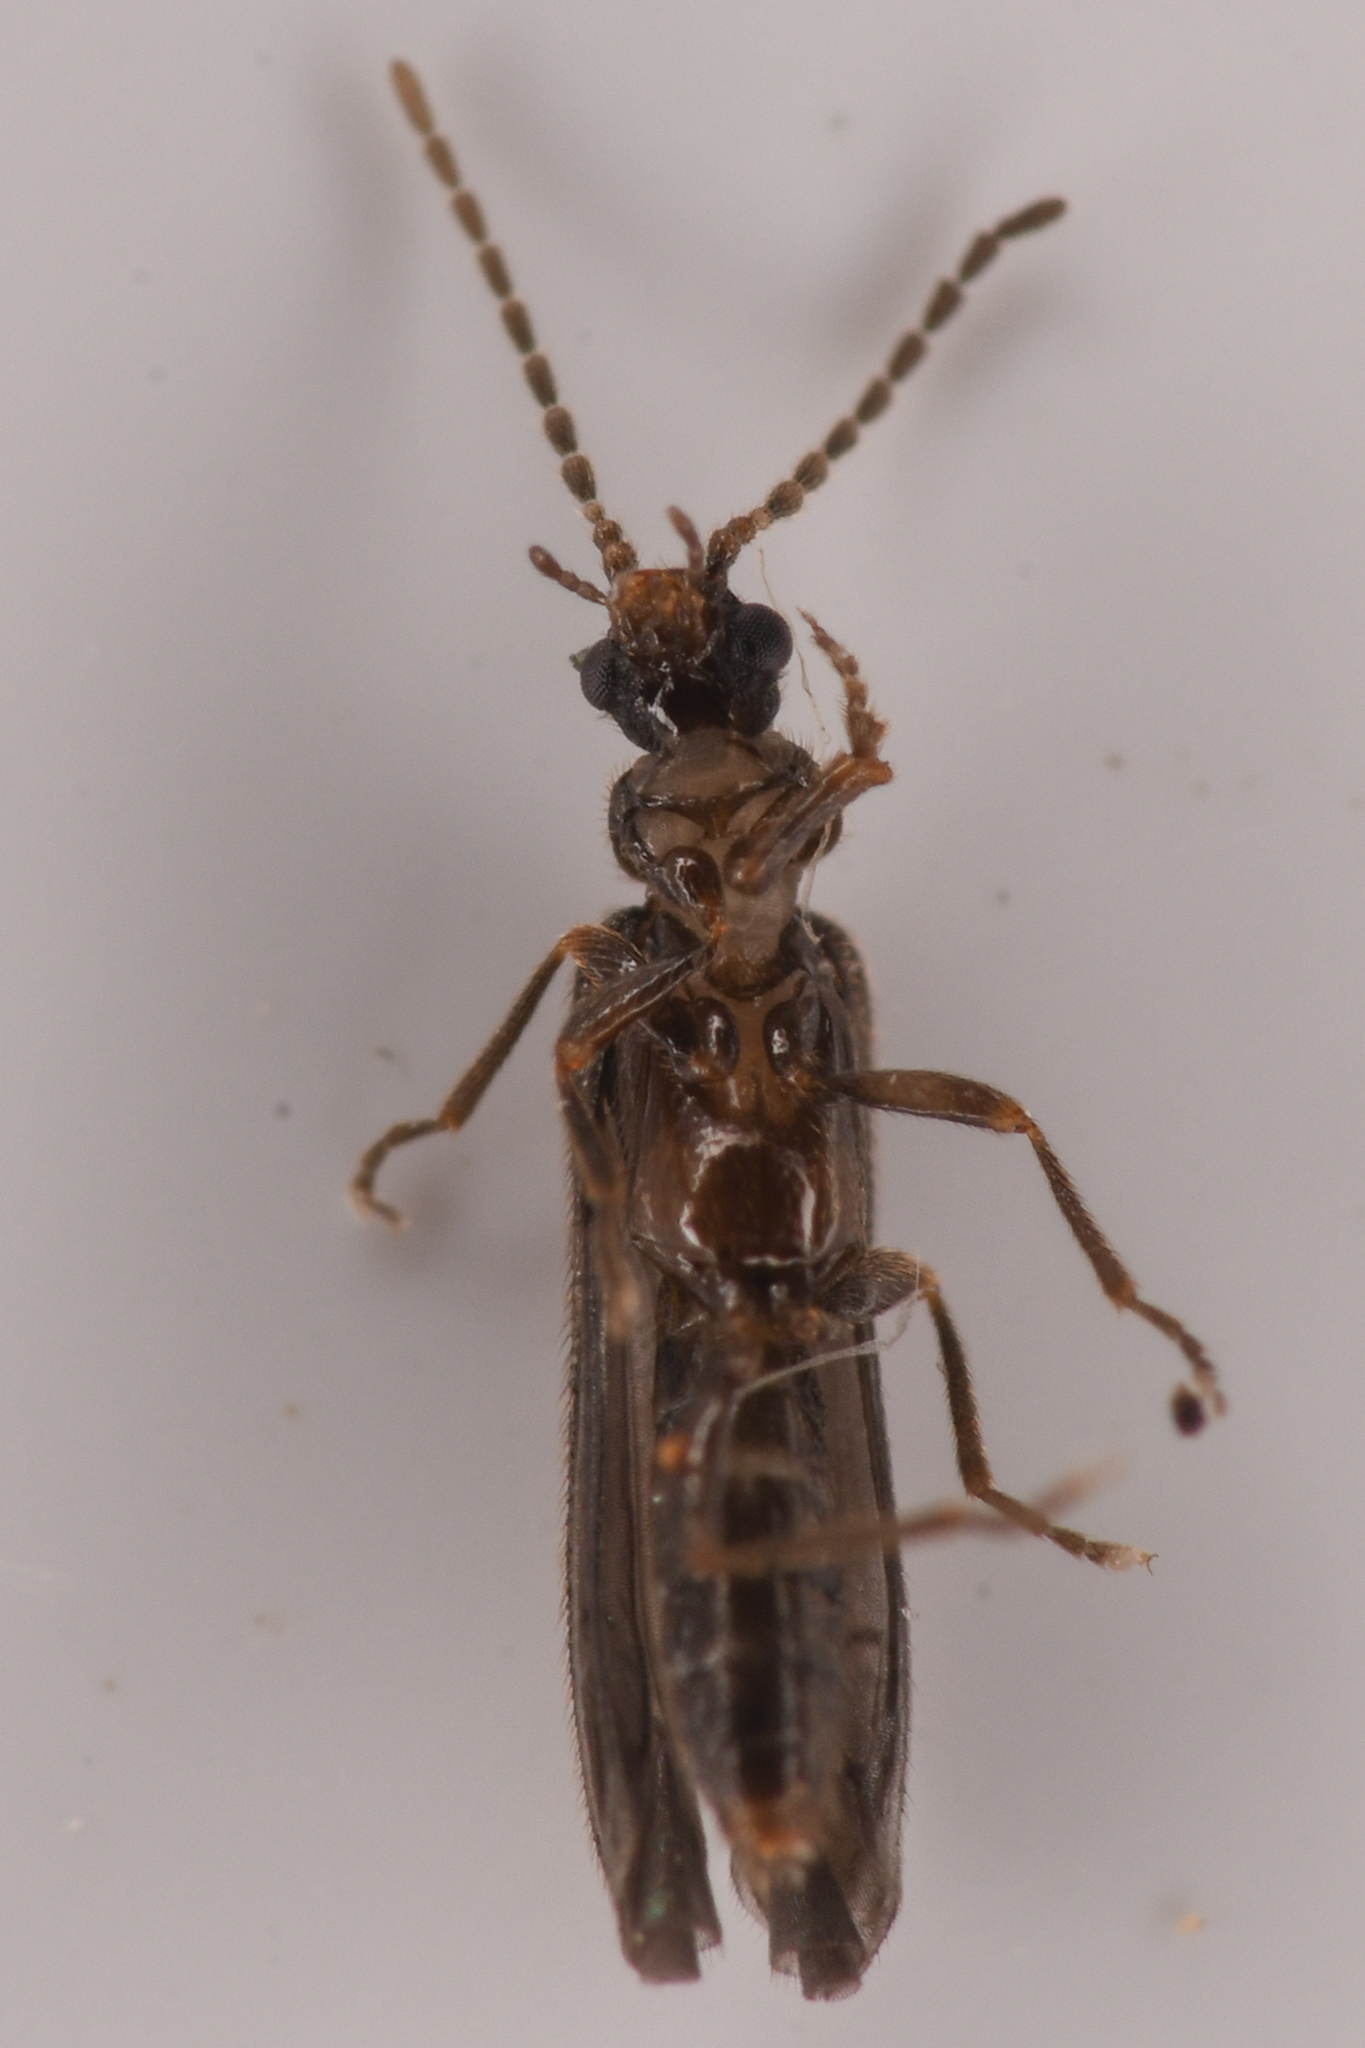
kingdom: Animalia
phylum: Arthropoda
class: Insecta
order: Coleoptera
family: Omethidae
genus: Malthomethes
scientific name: Malthomethes oregonus
